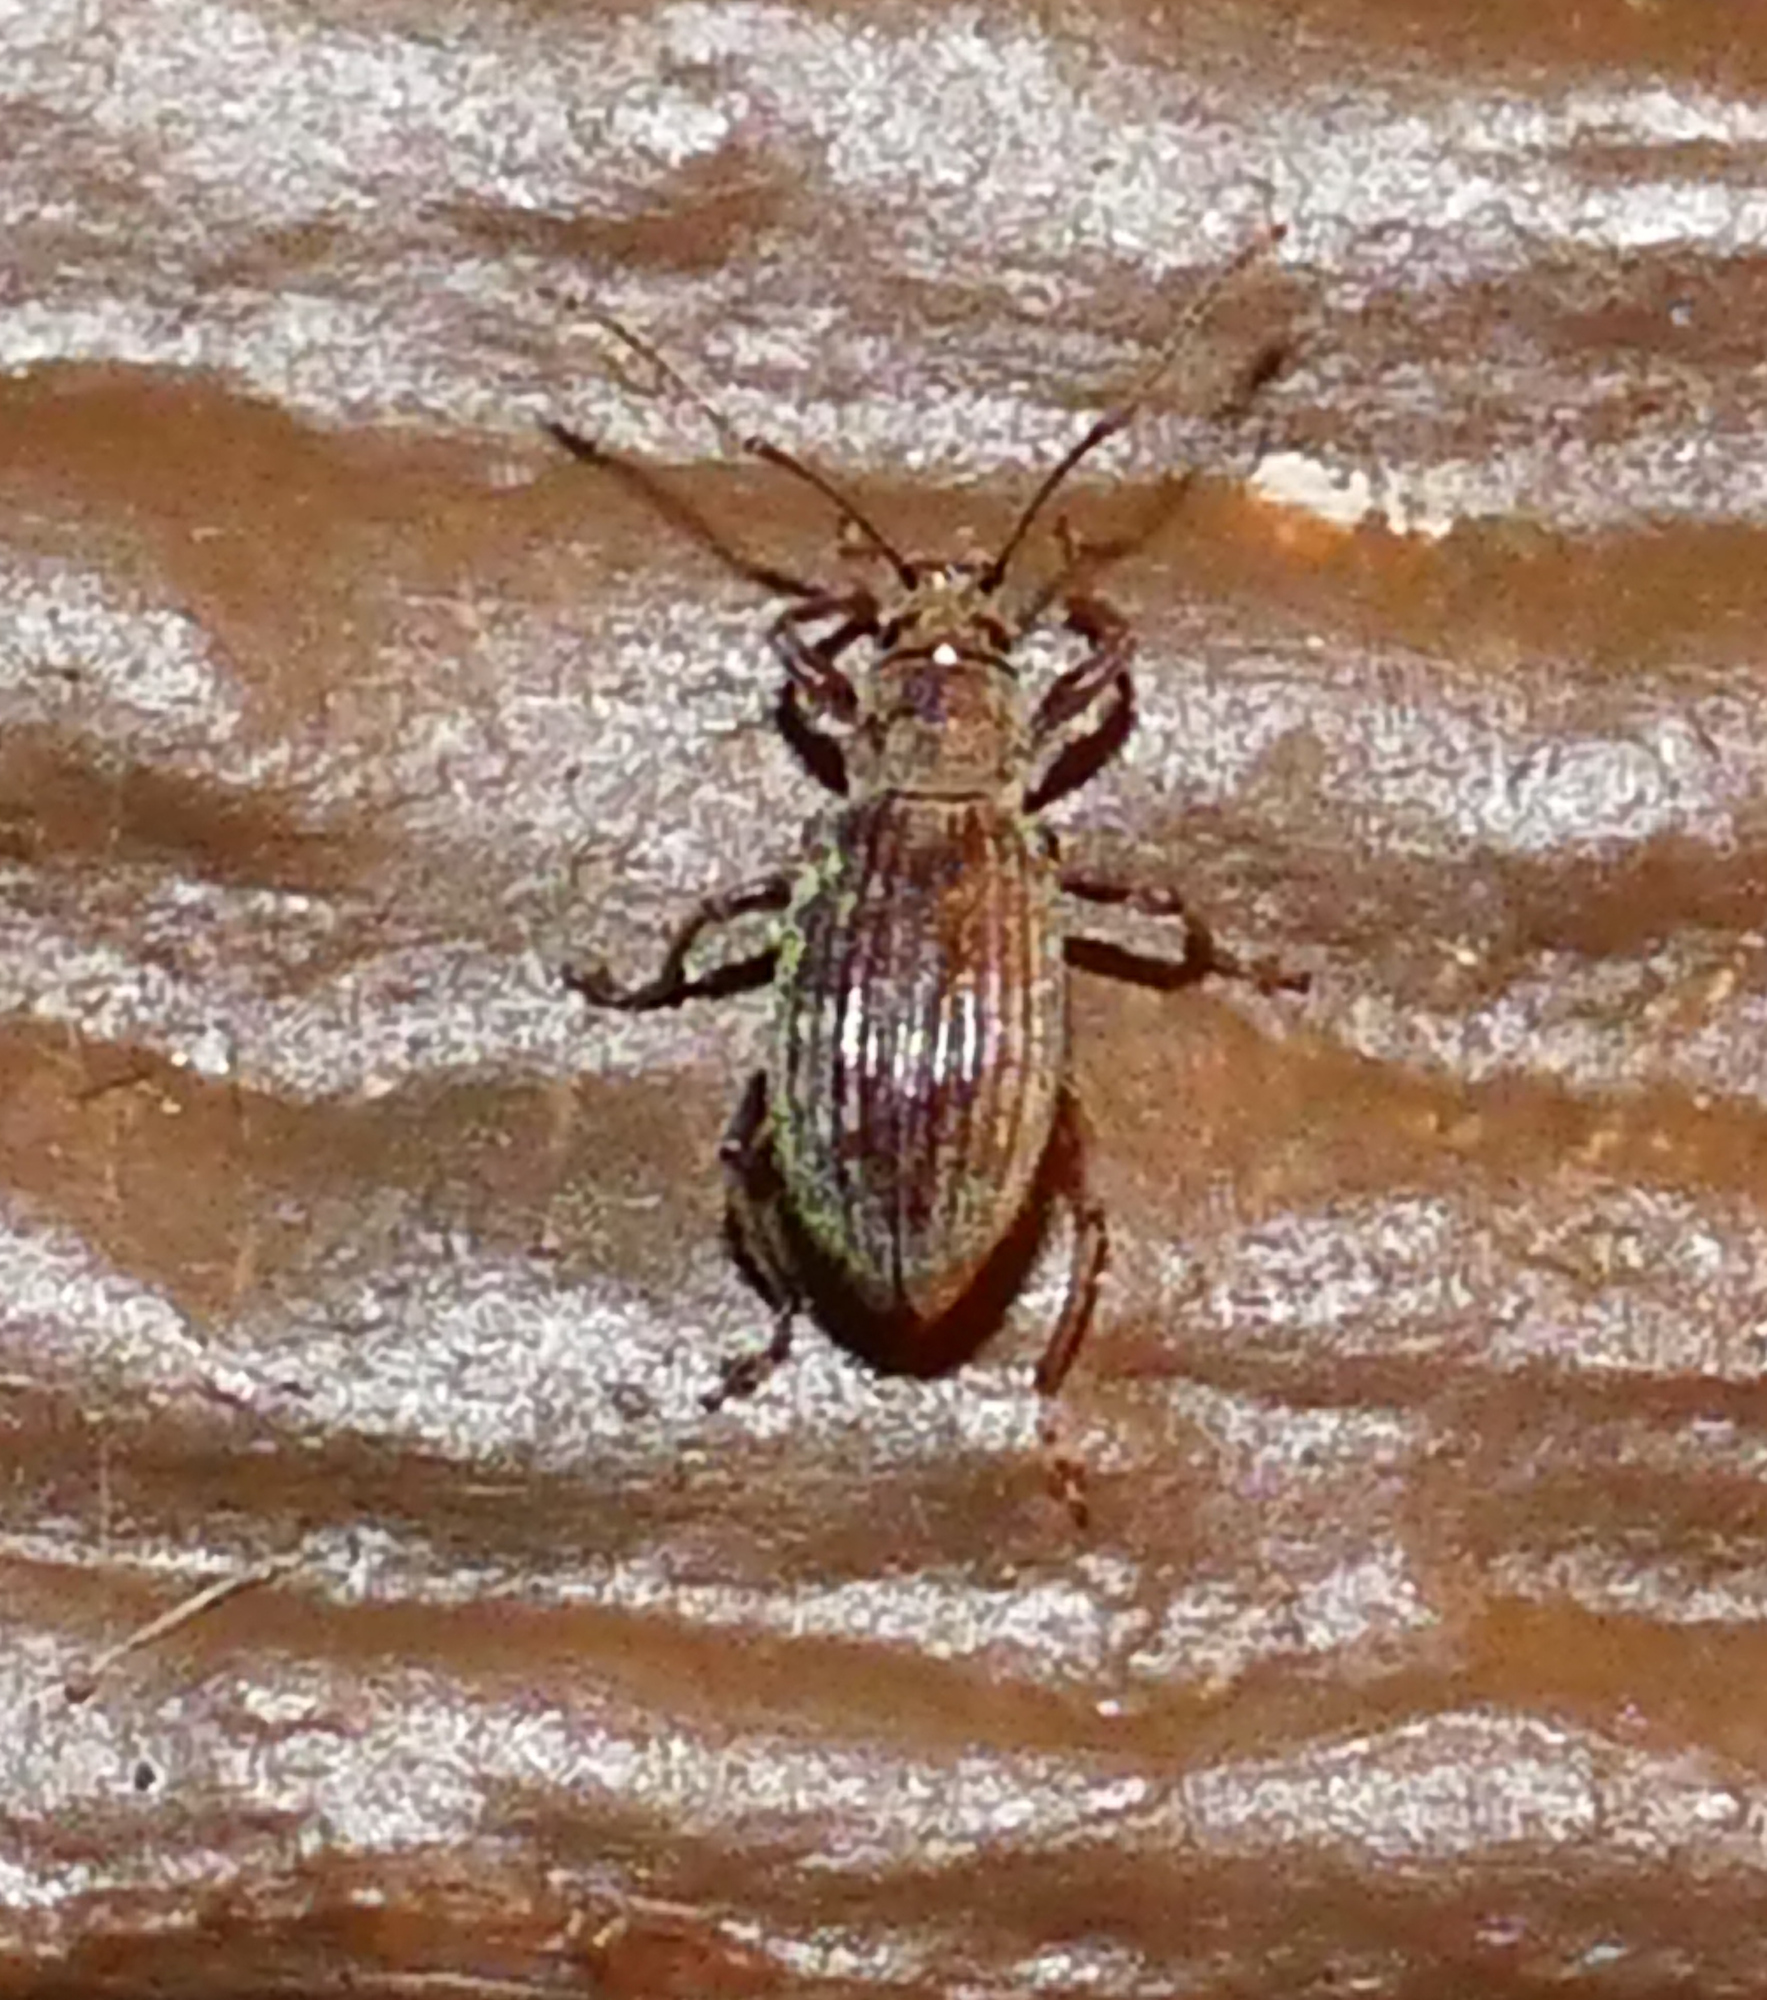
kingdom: Animalia
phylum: Arthropoda
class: Insecta
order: Coleoptera
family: Curculionidae
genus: Cyrtepistomus
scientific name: Cyrtepistomus castaneus
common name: Weevil
